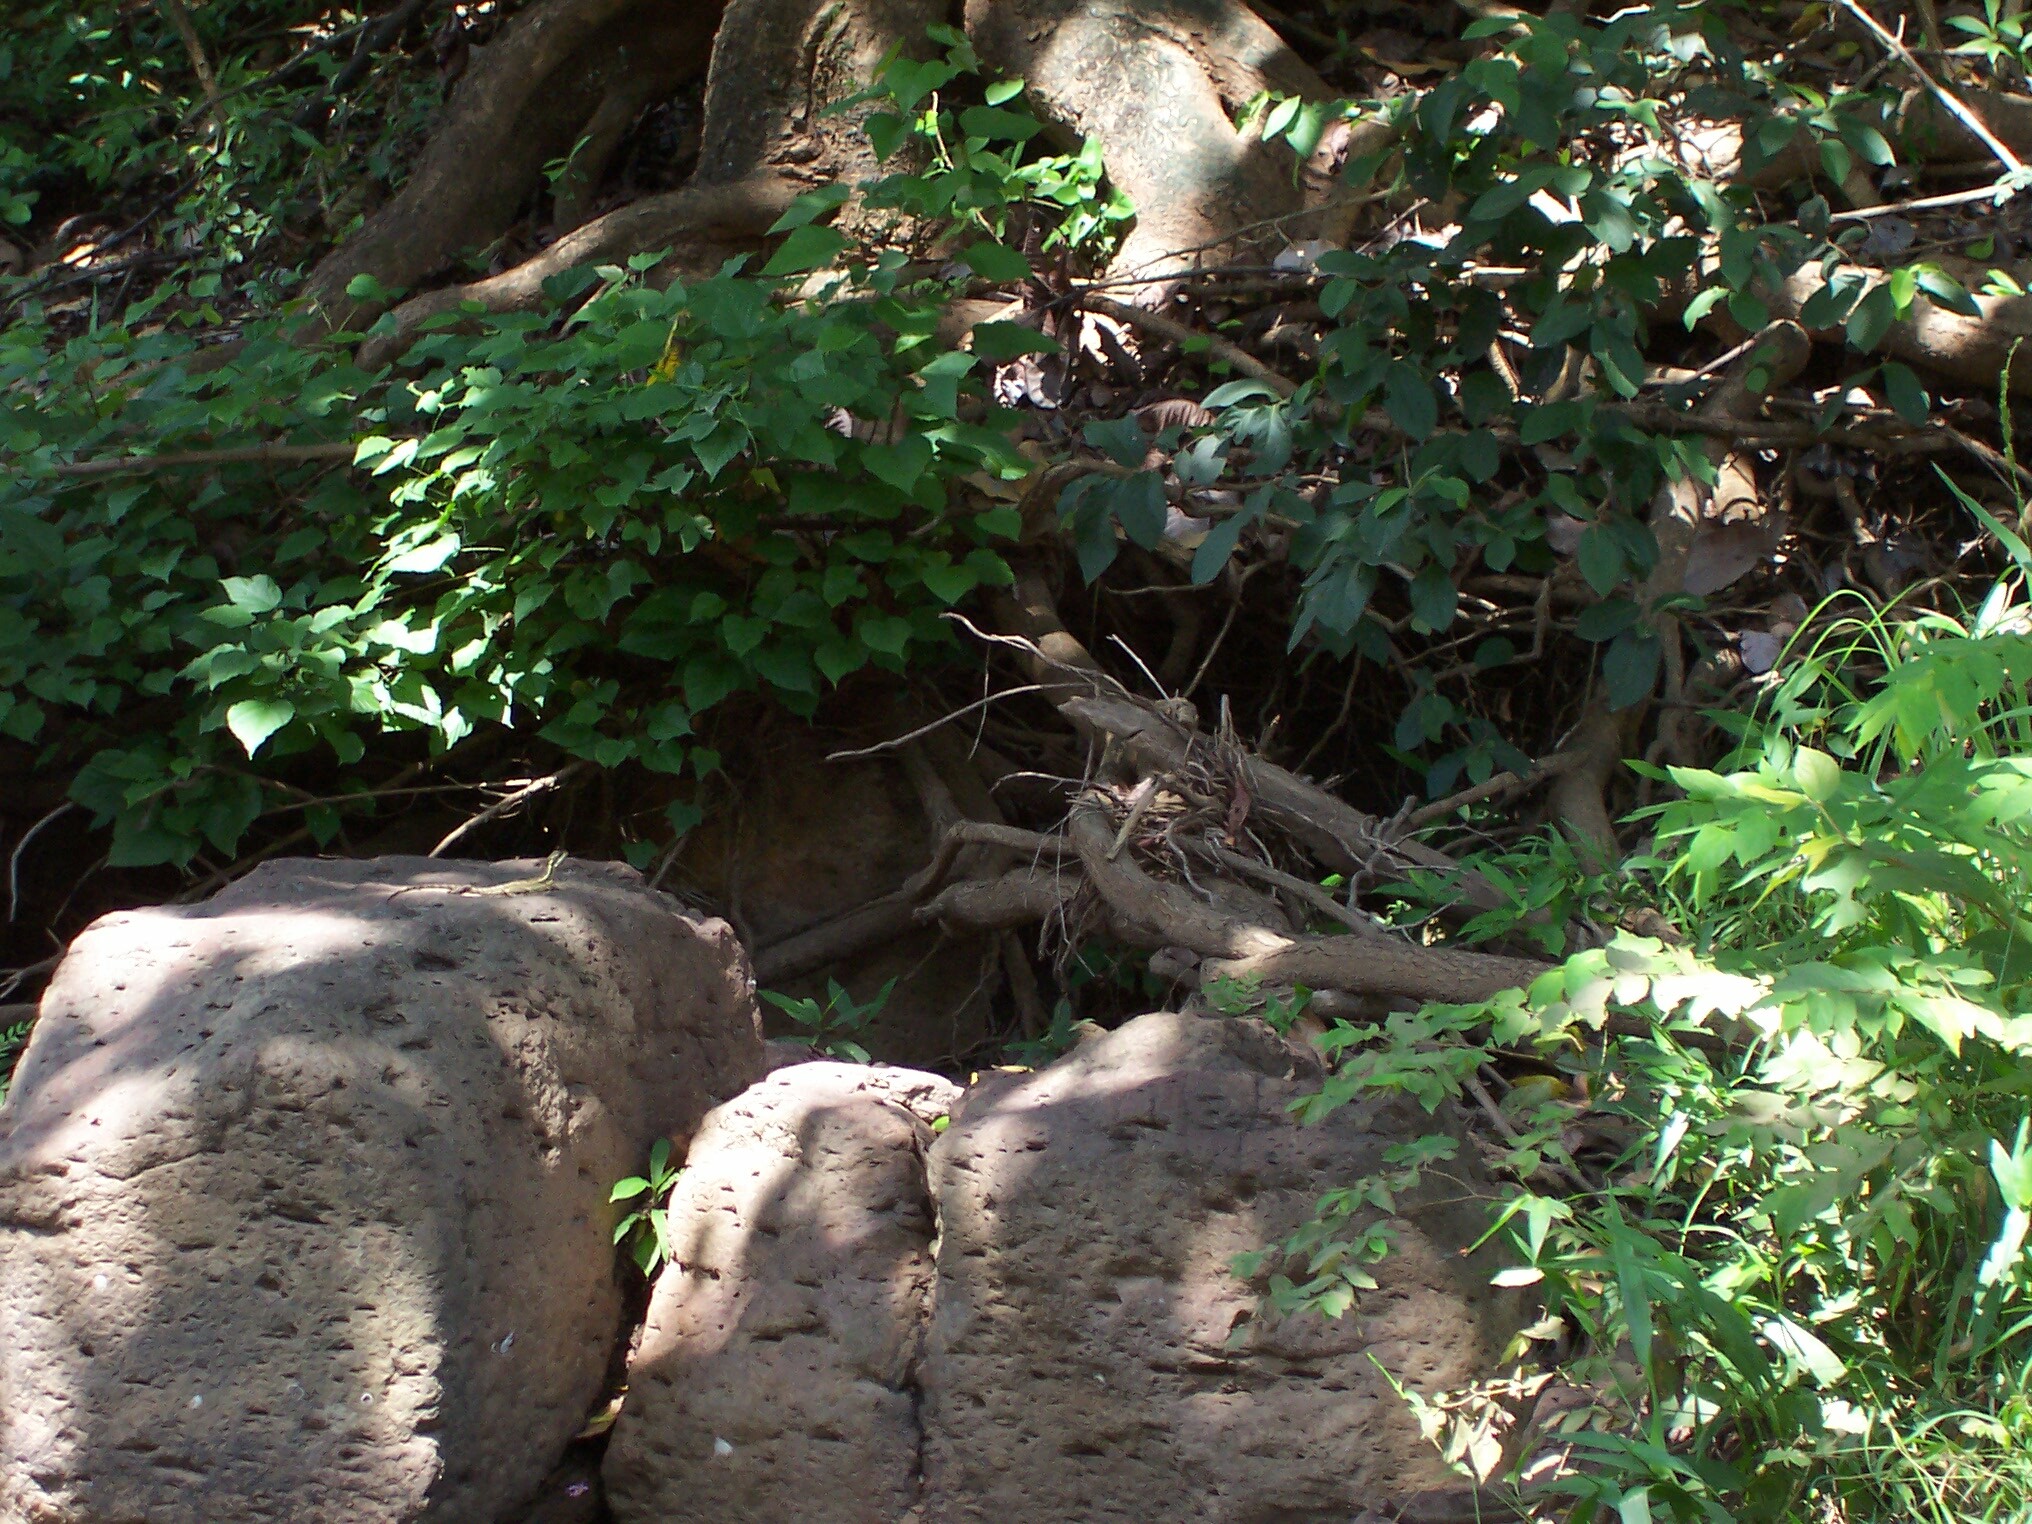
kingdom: Animalia
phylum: Chordata
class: Squamata
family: Corytophanidae
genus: Basiliscus
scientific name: Basiliscus basiliscus
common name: Common basilisk
